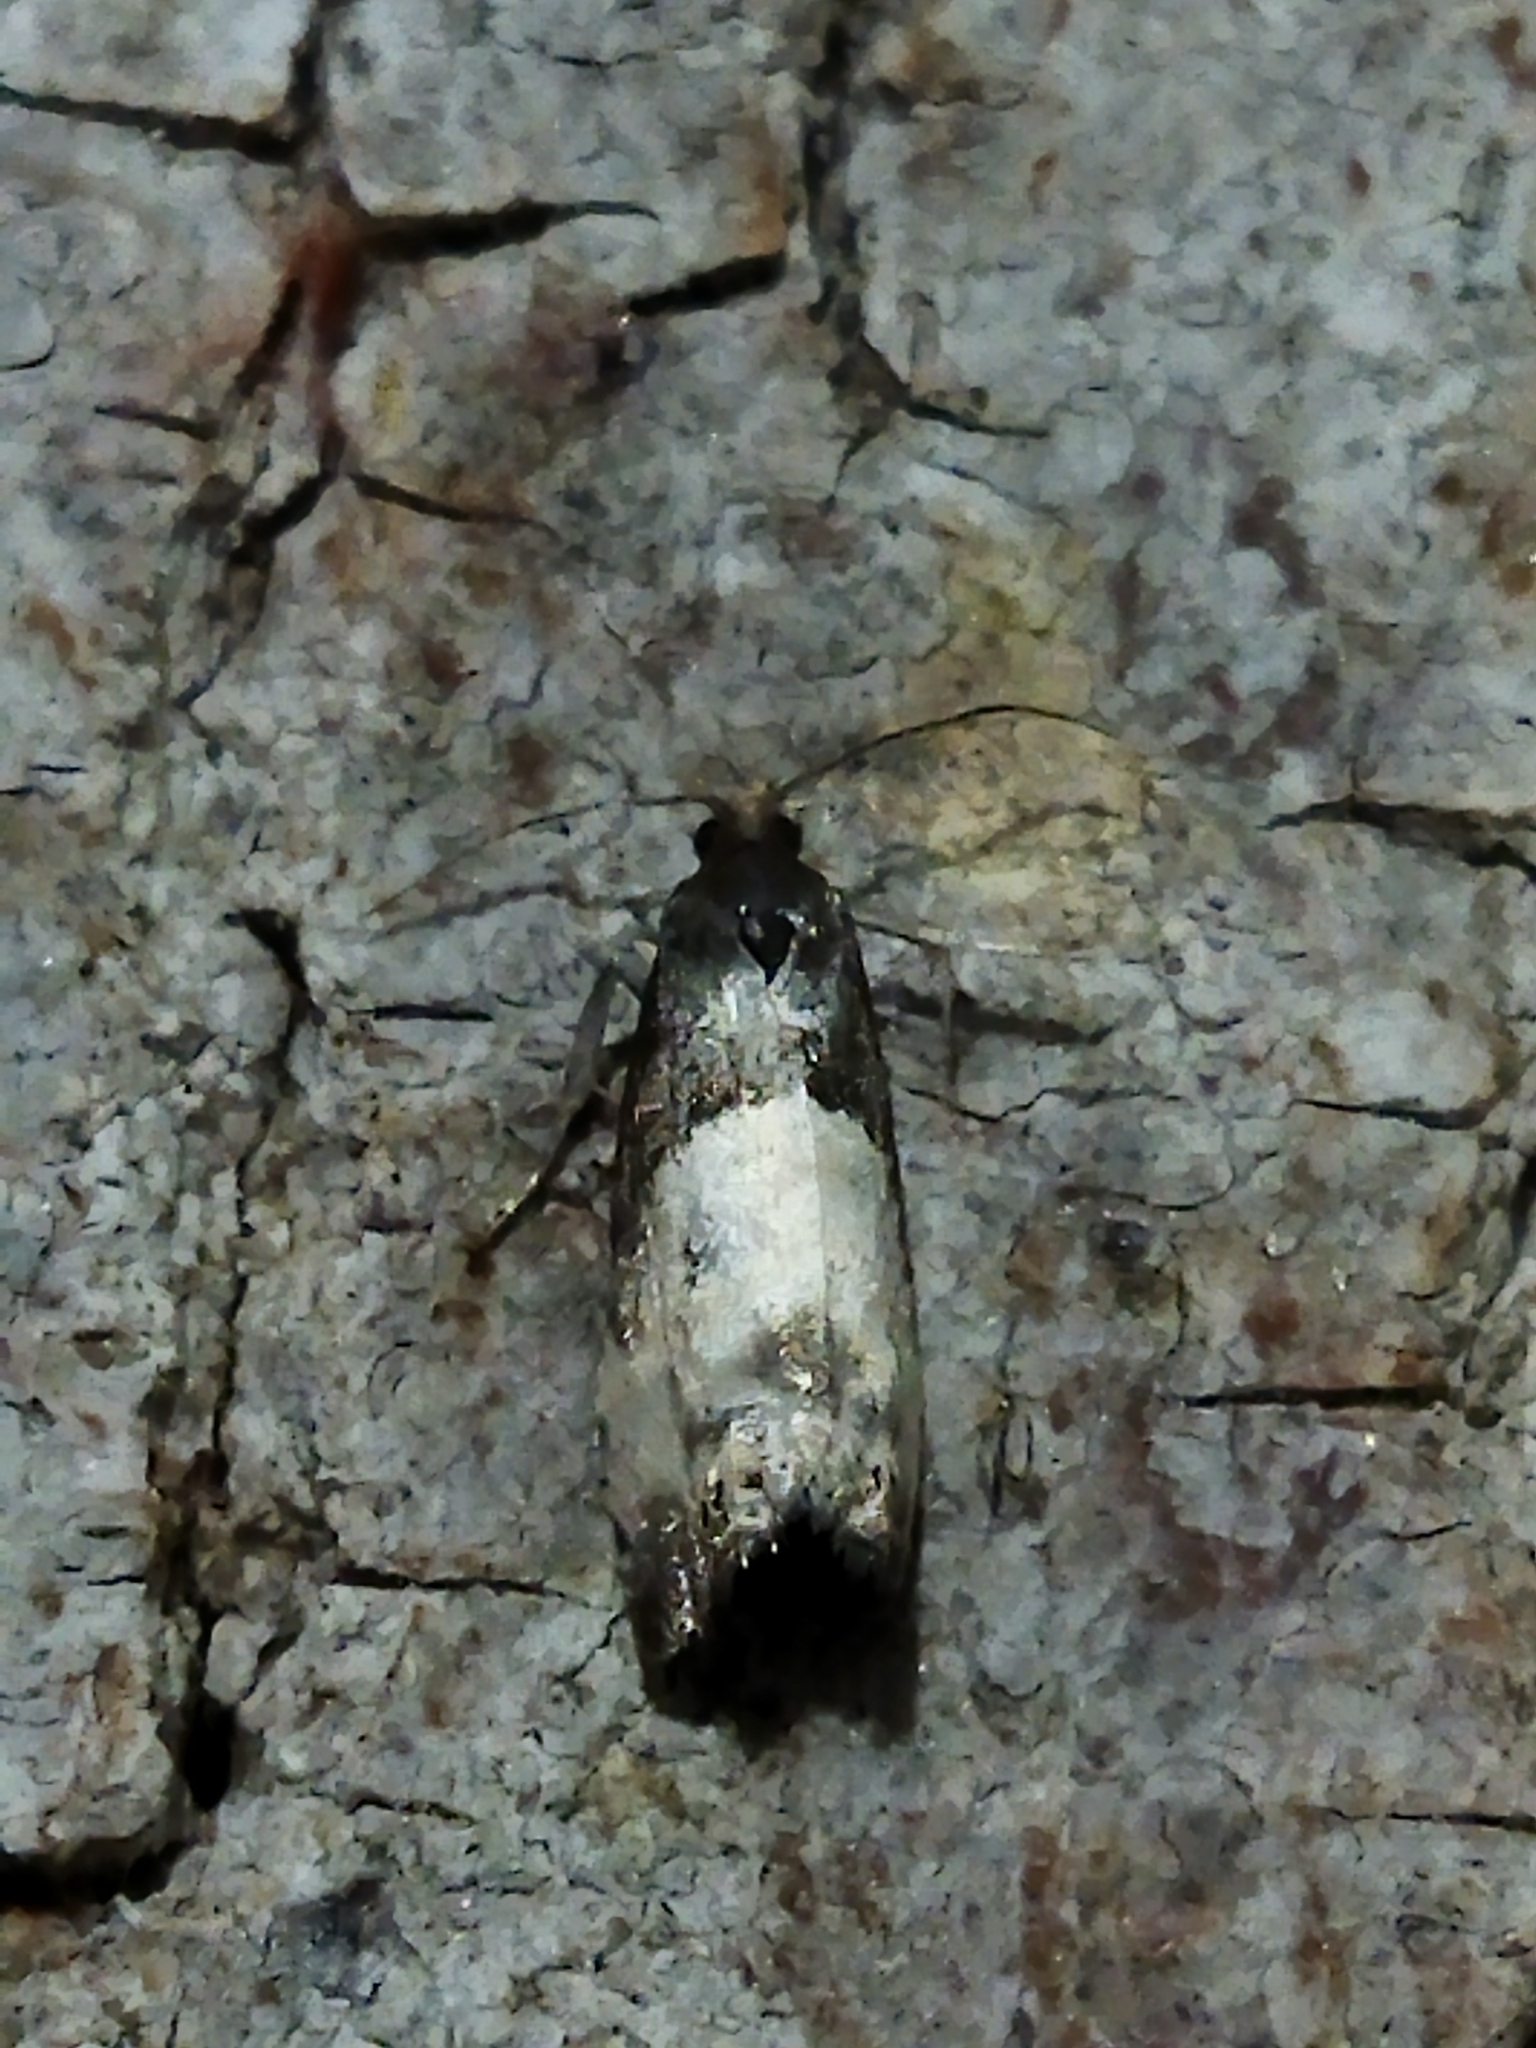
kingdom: Animalia
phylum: Arthropoda
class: Insecta
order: Lepidoptera
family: Tortricidae
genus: Notocelia
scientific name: Notocelia cynosbatella
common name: Yellow-faced bell moth
